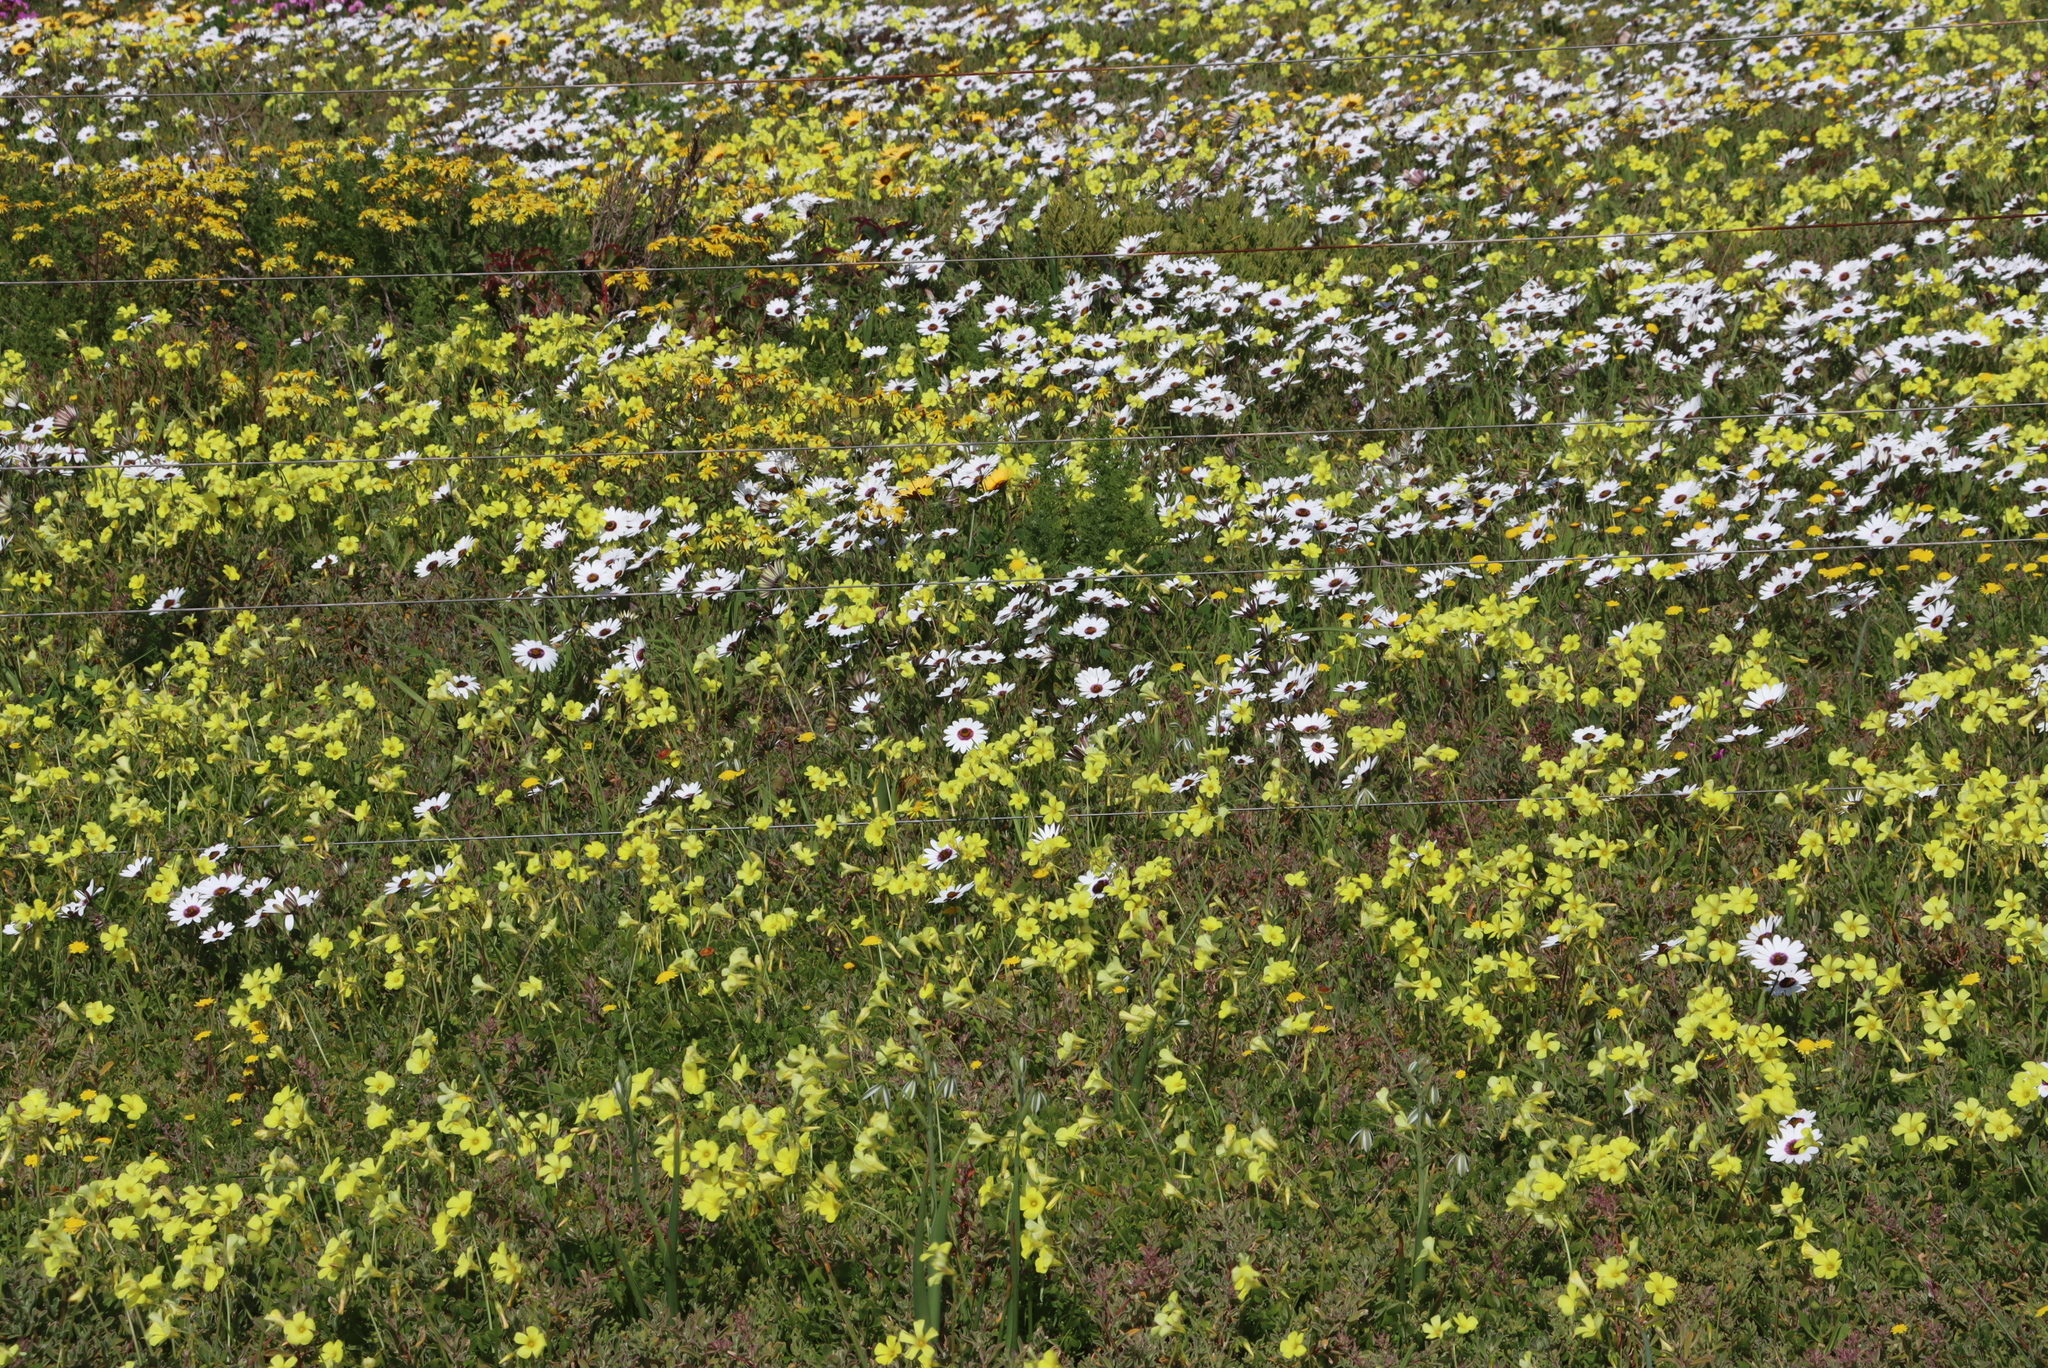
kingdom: Plantae
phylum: Tracheophyta
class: Magnoliopsida
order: Oxalidales
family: Oxalidaceae
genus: Oxalis
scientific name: Oxalis pes-caprae
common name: Bermuda-buttercup
